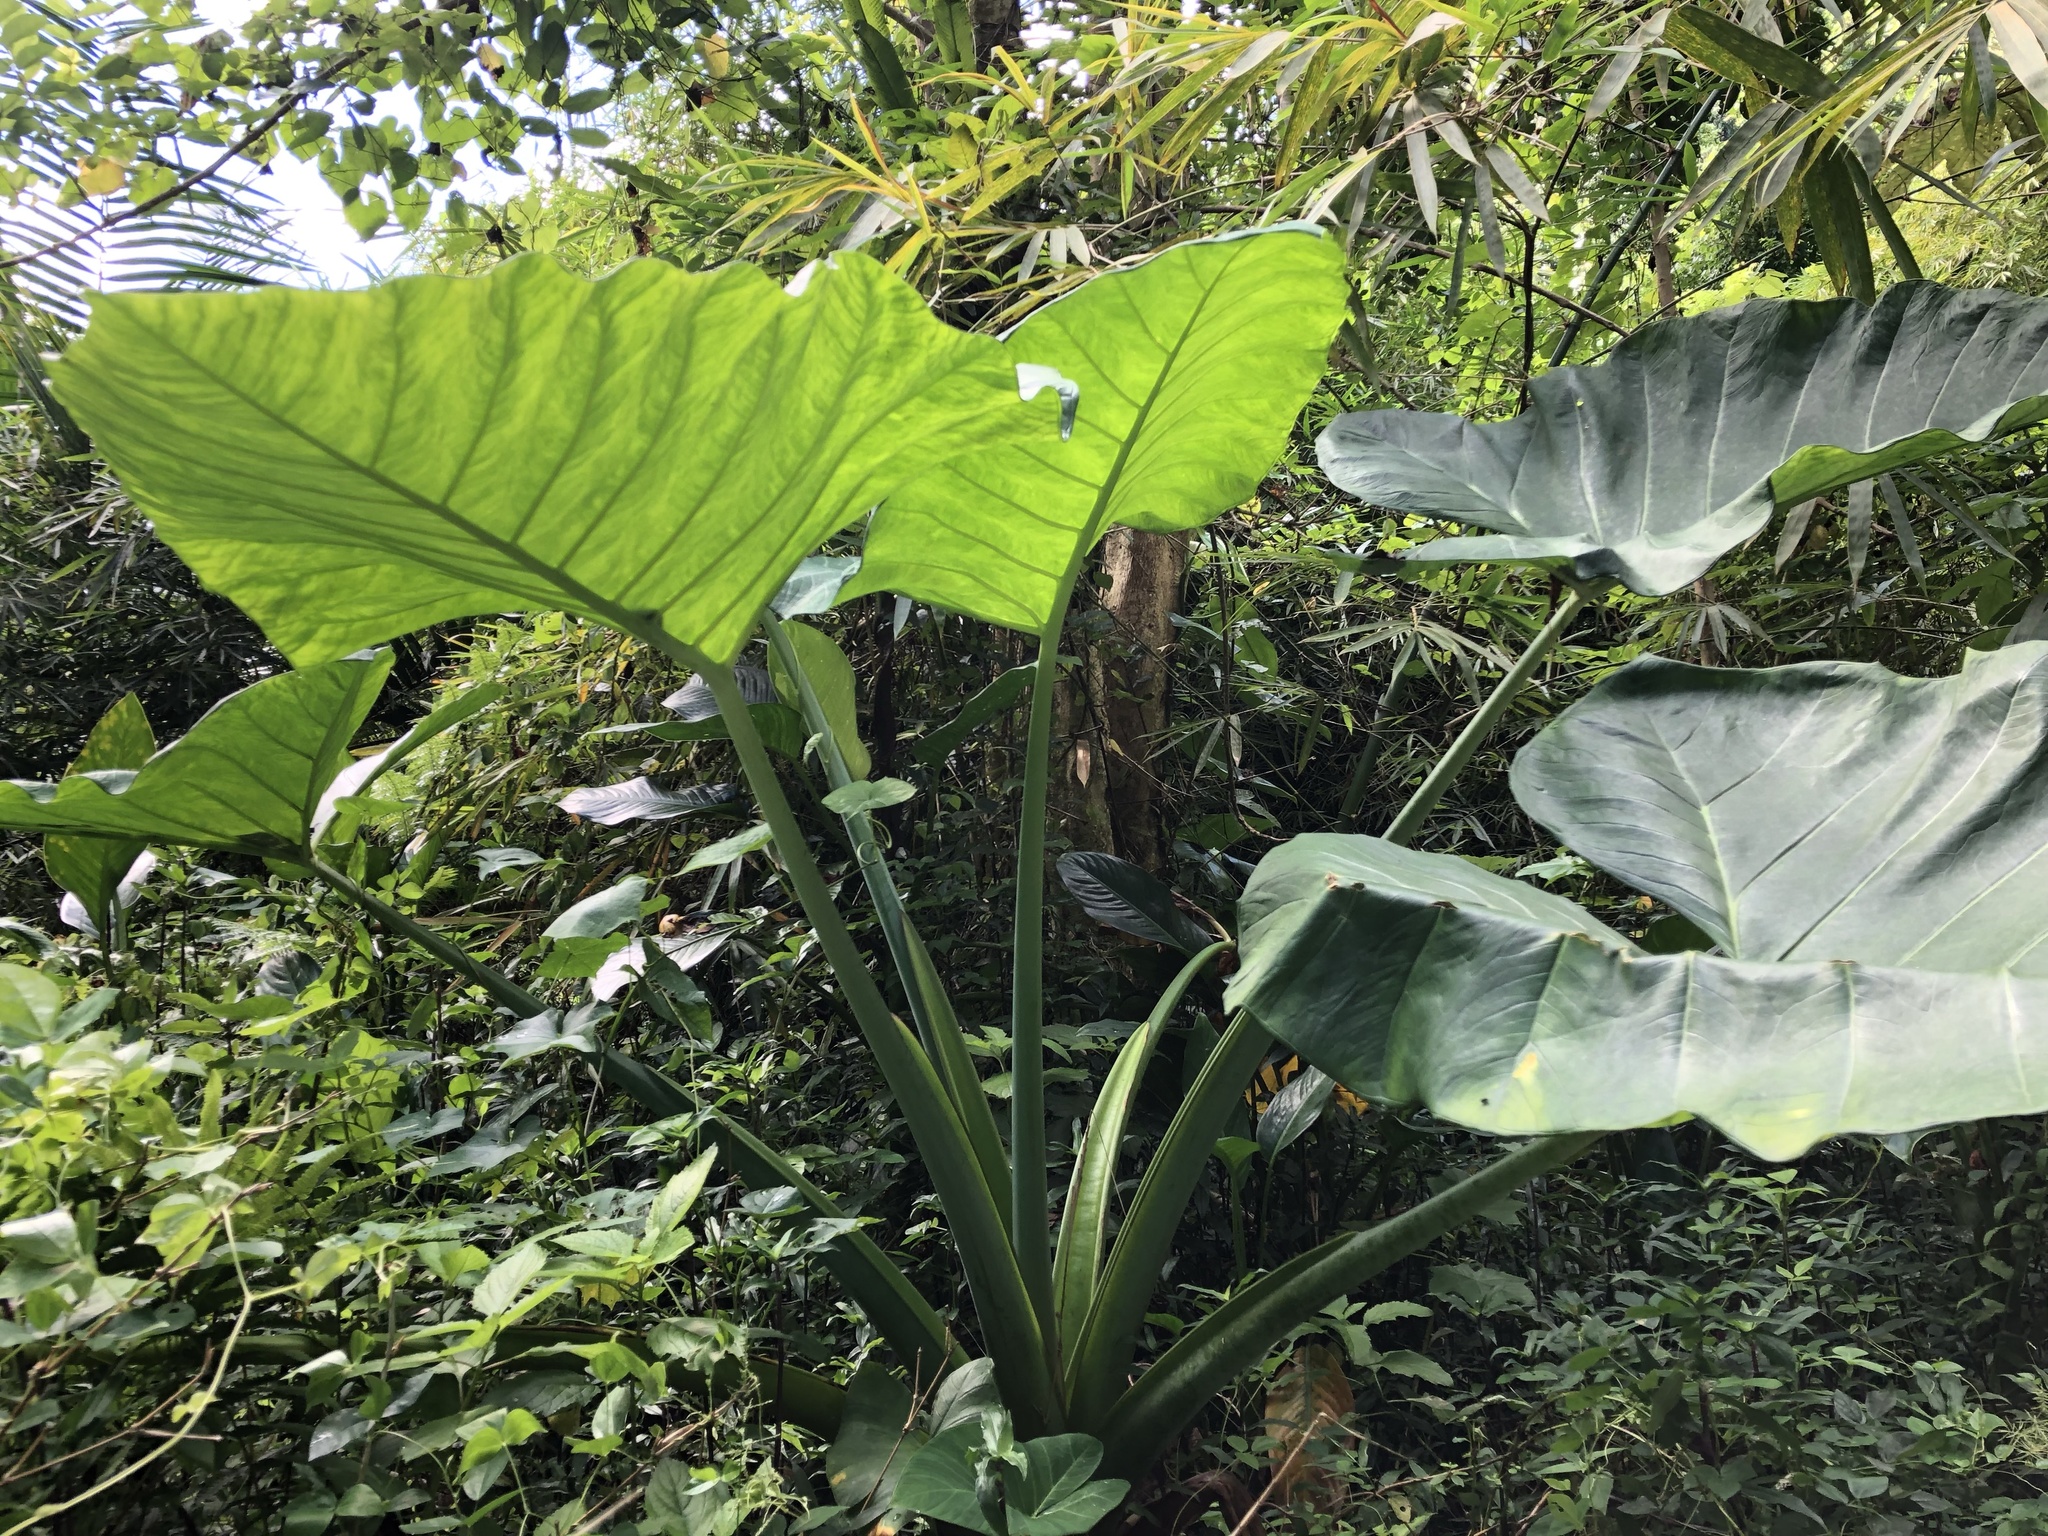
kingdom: Plantae
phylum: Tracheophyta
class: Liliopsida
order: Alismatales
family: Araceae
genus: Alocasia
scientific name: Alocasia macrorrhizos
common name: Giant taro
